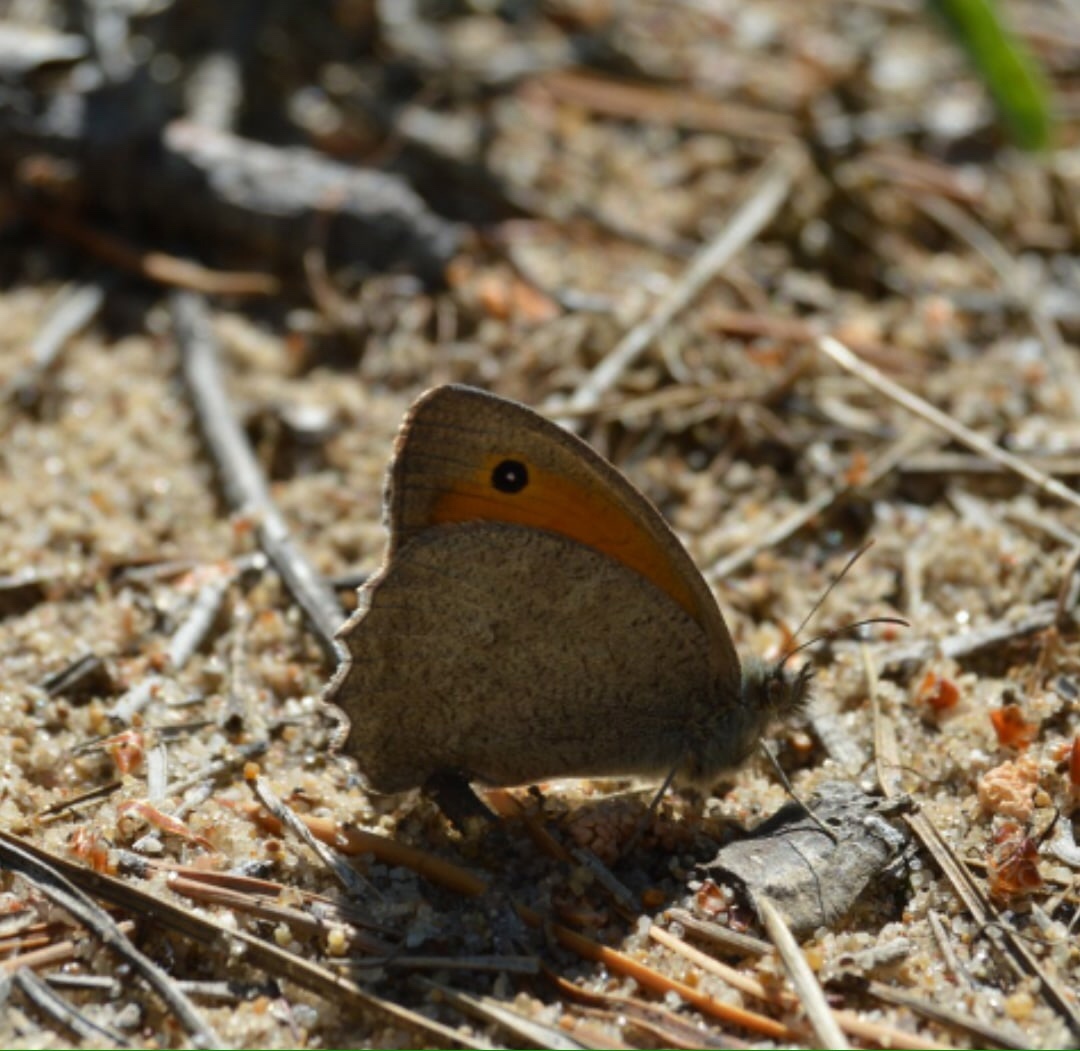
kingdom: Animalia
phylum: Arthropoda
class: Insecta
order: Lepidoptera
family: Nymphalidae
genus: Hyponephele
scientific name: Hyponephele lupinus
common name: Oriental meadow brown
